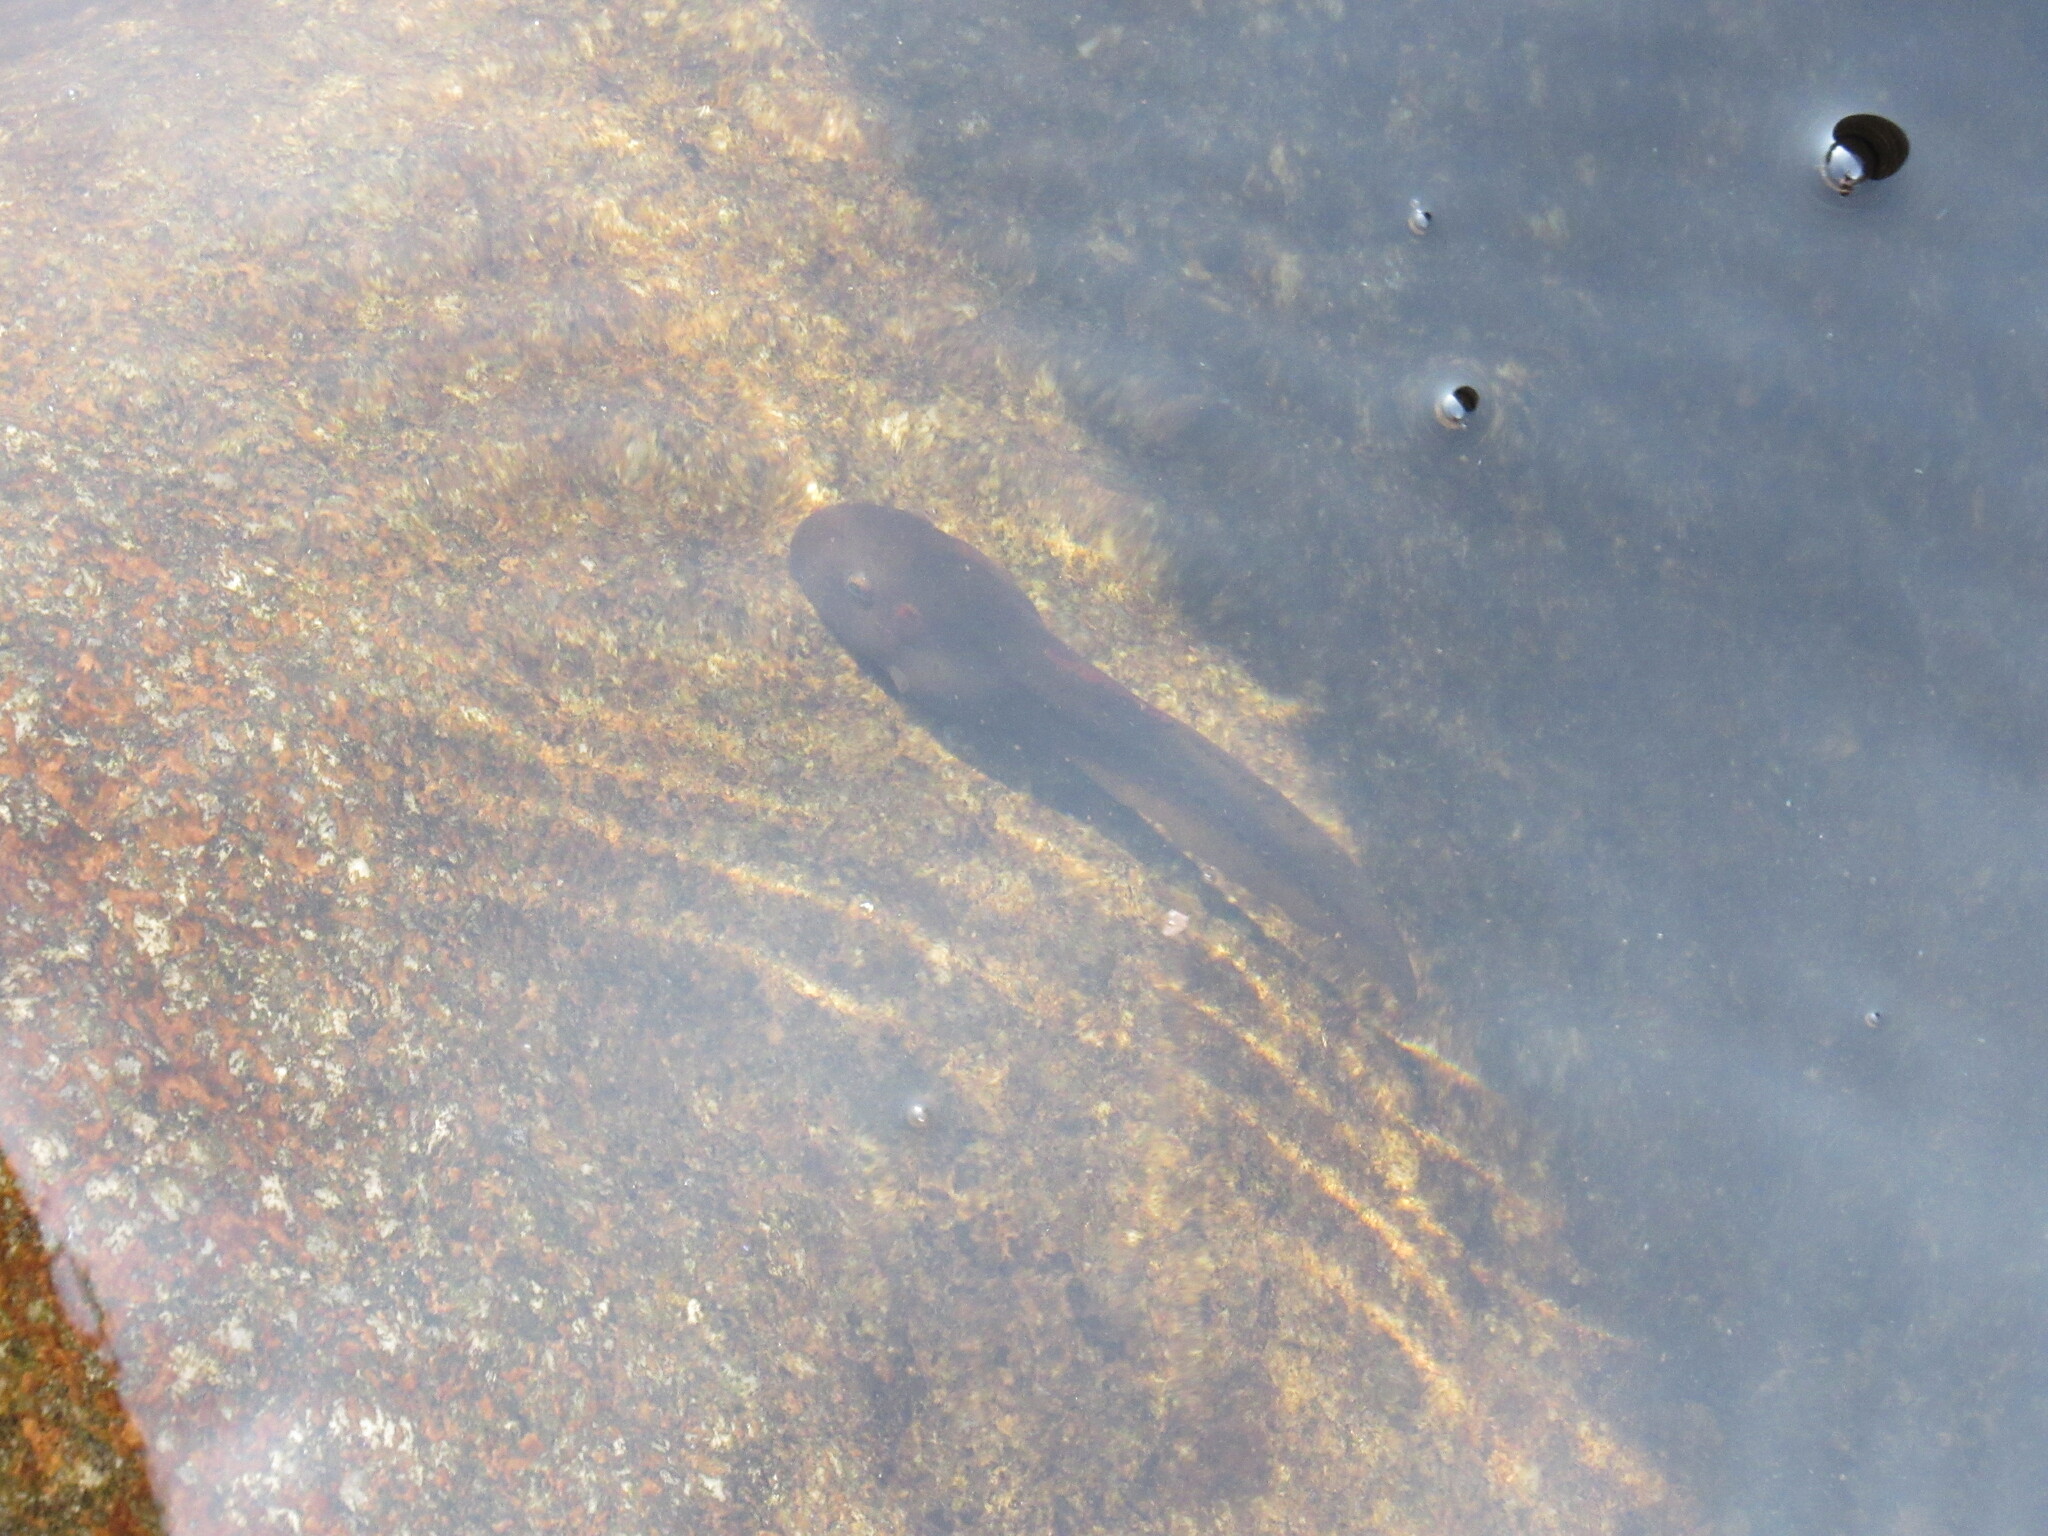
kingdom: Animalia
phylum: Chordata
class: Amphibia
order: Anura
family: Ranidae
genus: Clinotarsus
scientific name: Clinotarsus curtipes
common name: Bicoloured frog
